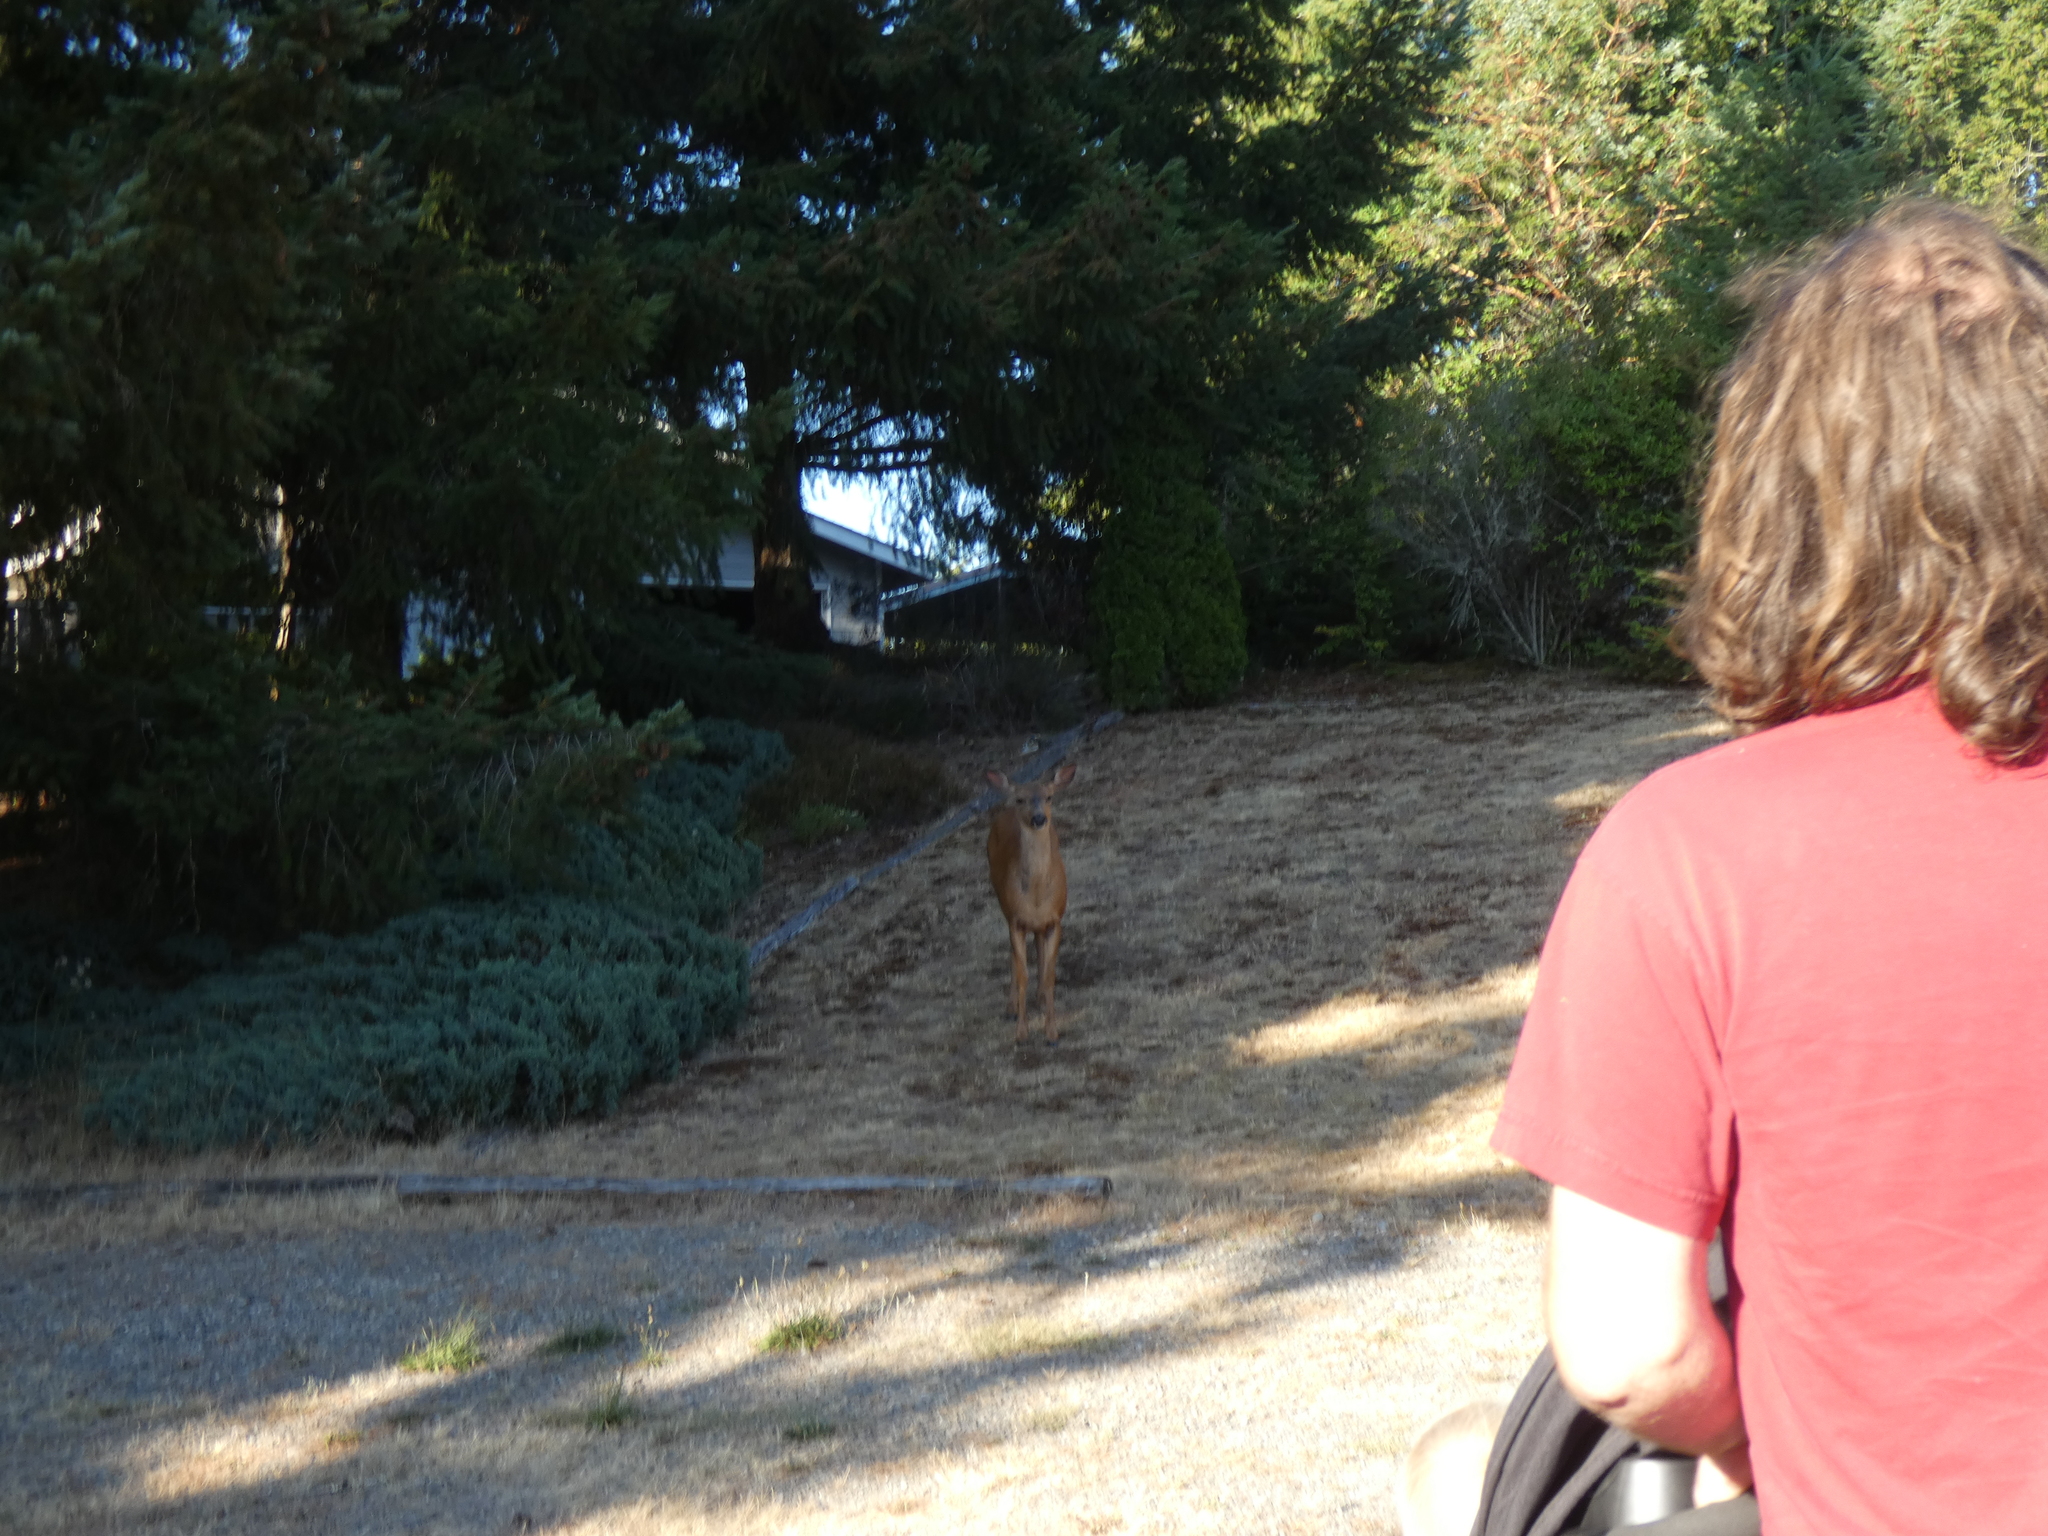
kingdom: Animalia
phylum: Chordata
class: Mammalia
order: Artiodactyla
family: Cervidae
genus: Odocoileus
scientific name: Odocoileus hemionus
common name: Mule deer
